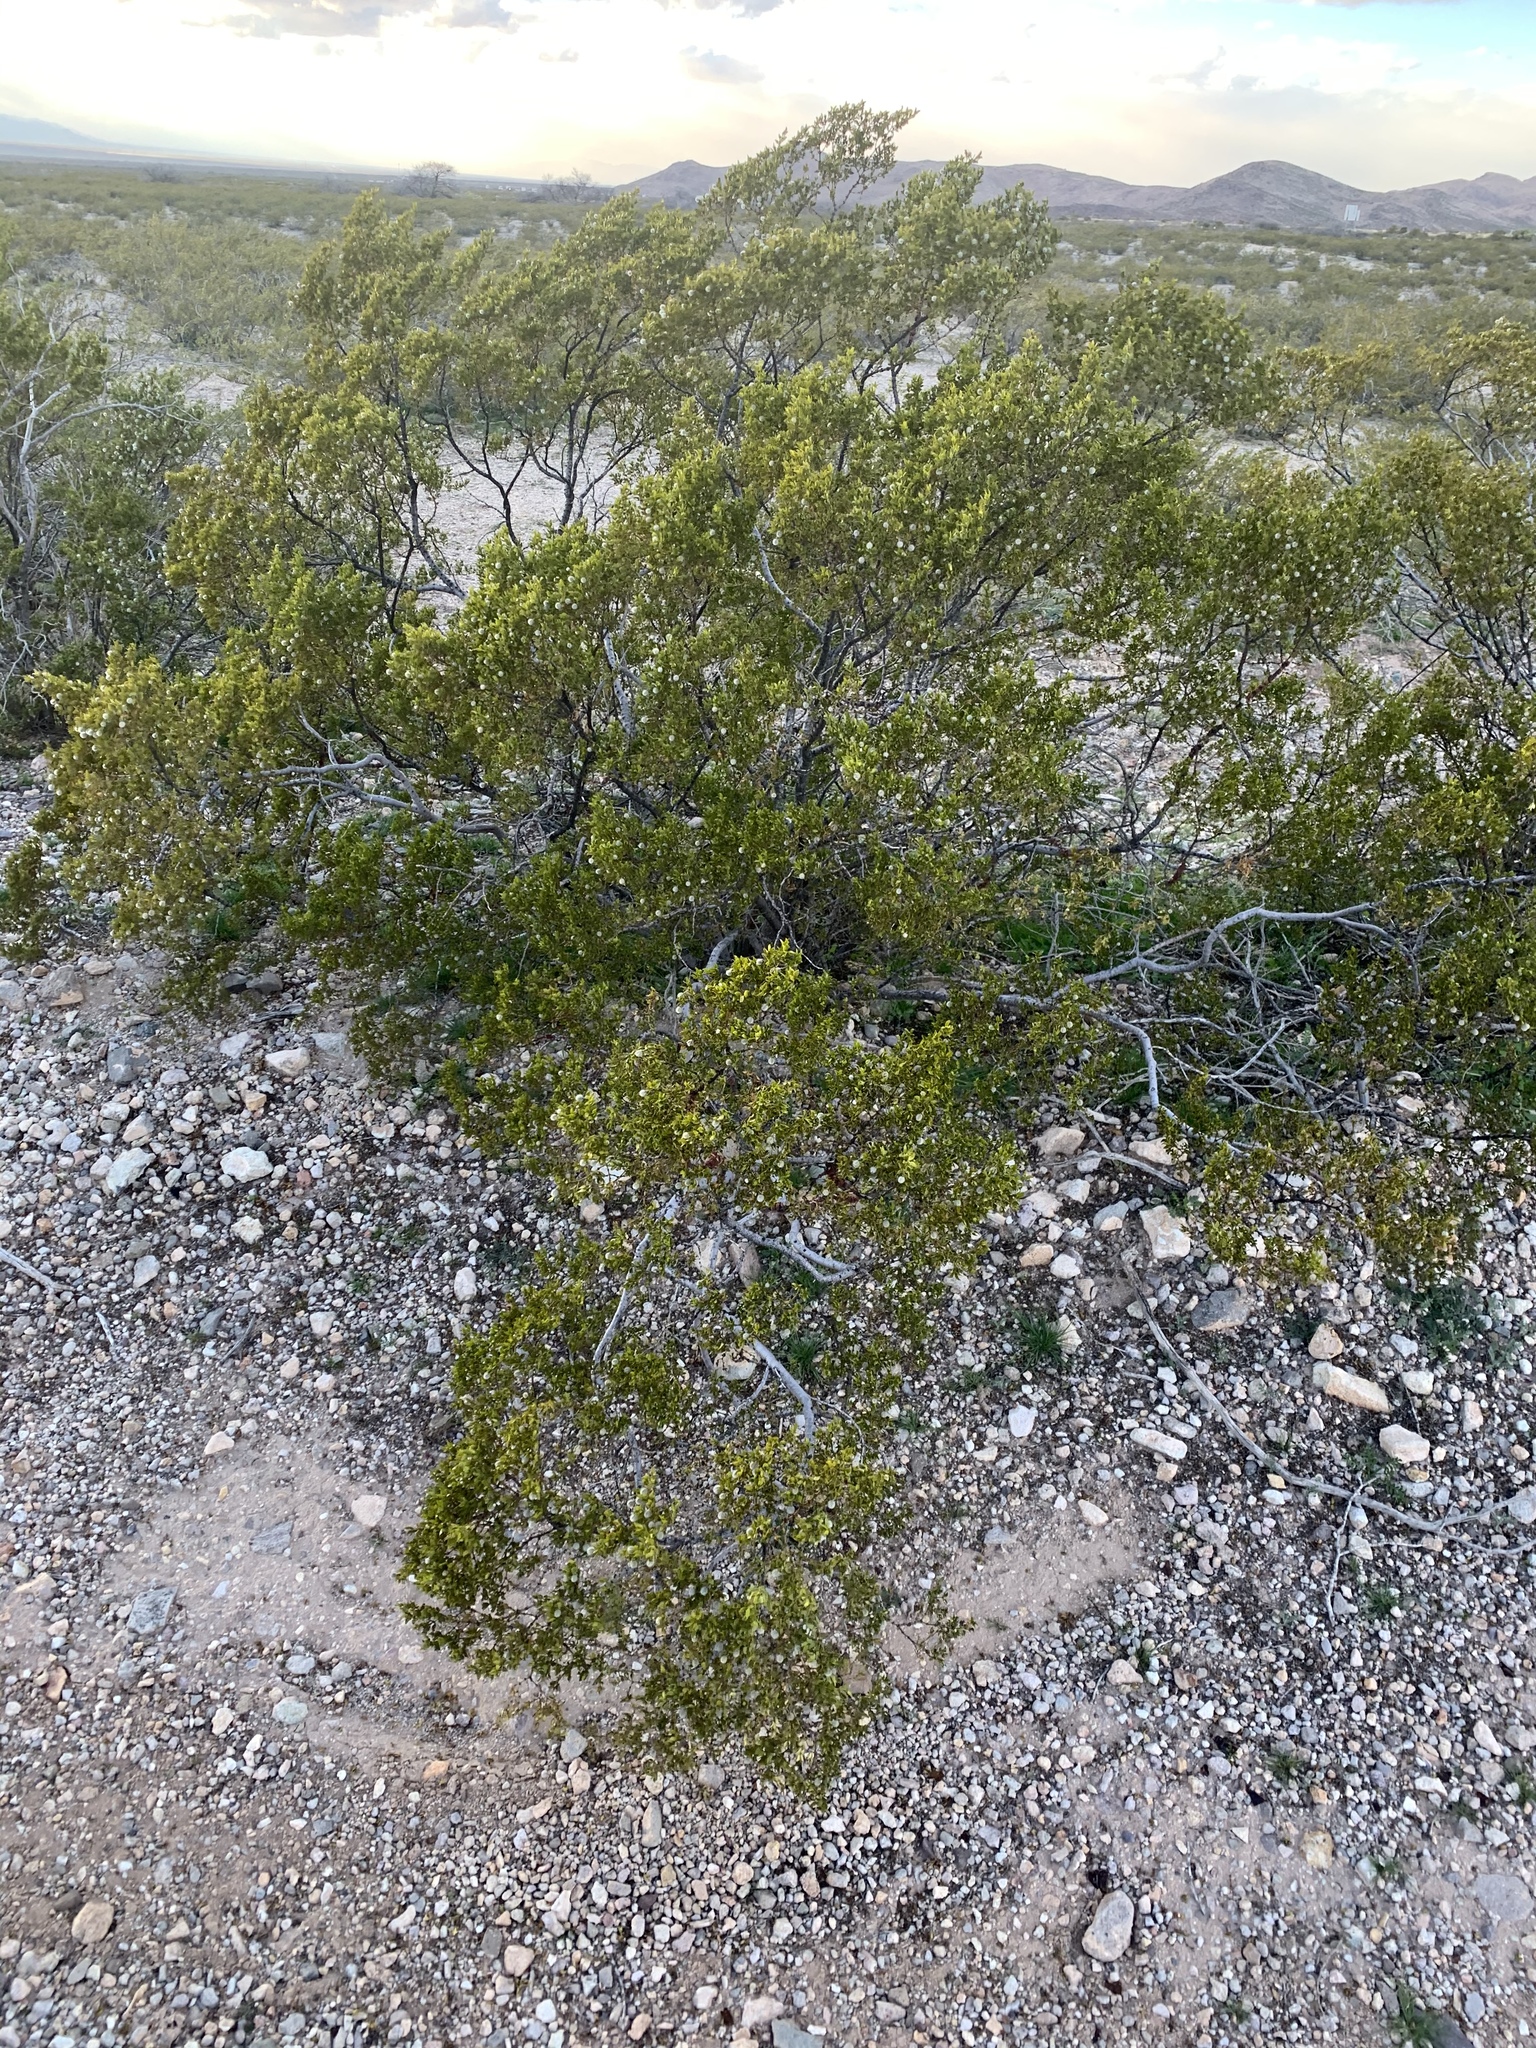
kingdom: Plantae
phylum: Tracheophyta
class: Magnoliopsida
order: Zygophyllales
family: Zygophyllaceae
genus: Larrea
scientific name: Larrea tridentata
